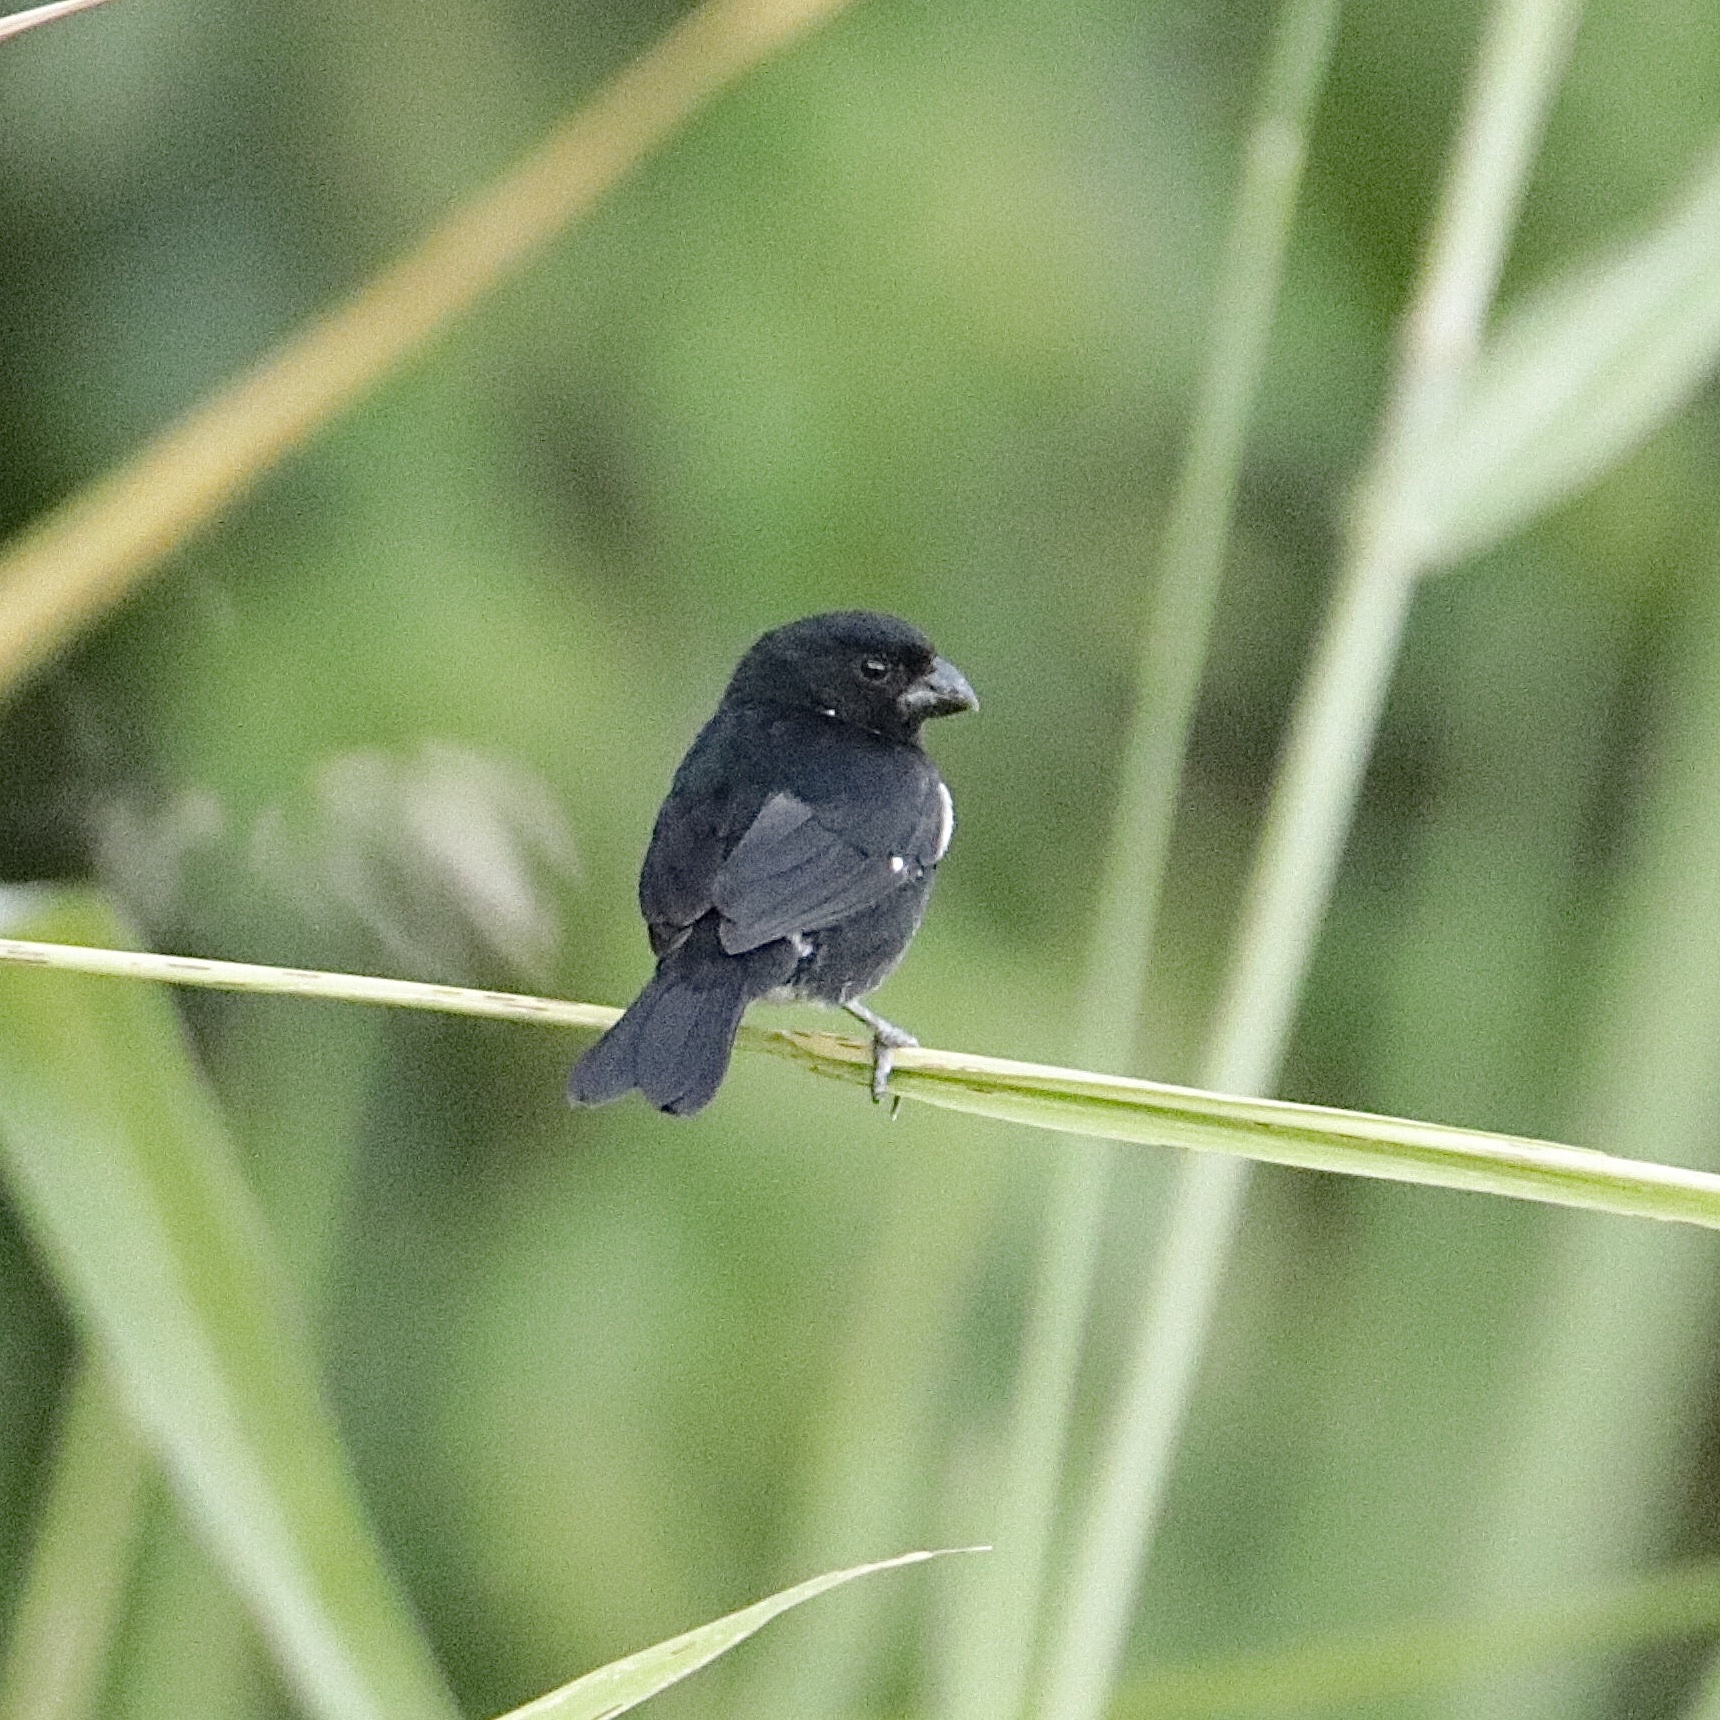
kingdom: Animalia
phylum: Chordata
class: Aves
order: Passeriformes
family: Thraupidae
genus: Sporophila
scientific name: Sporophila corvina
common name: Variable seedeater
